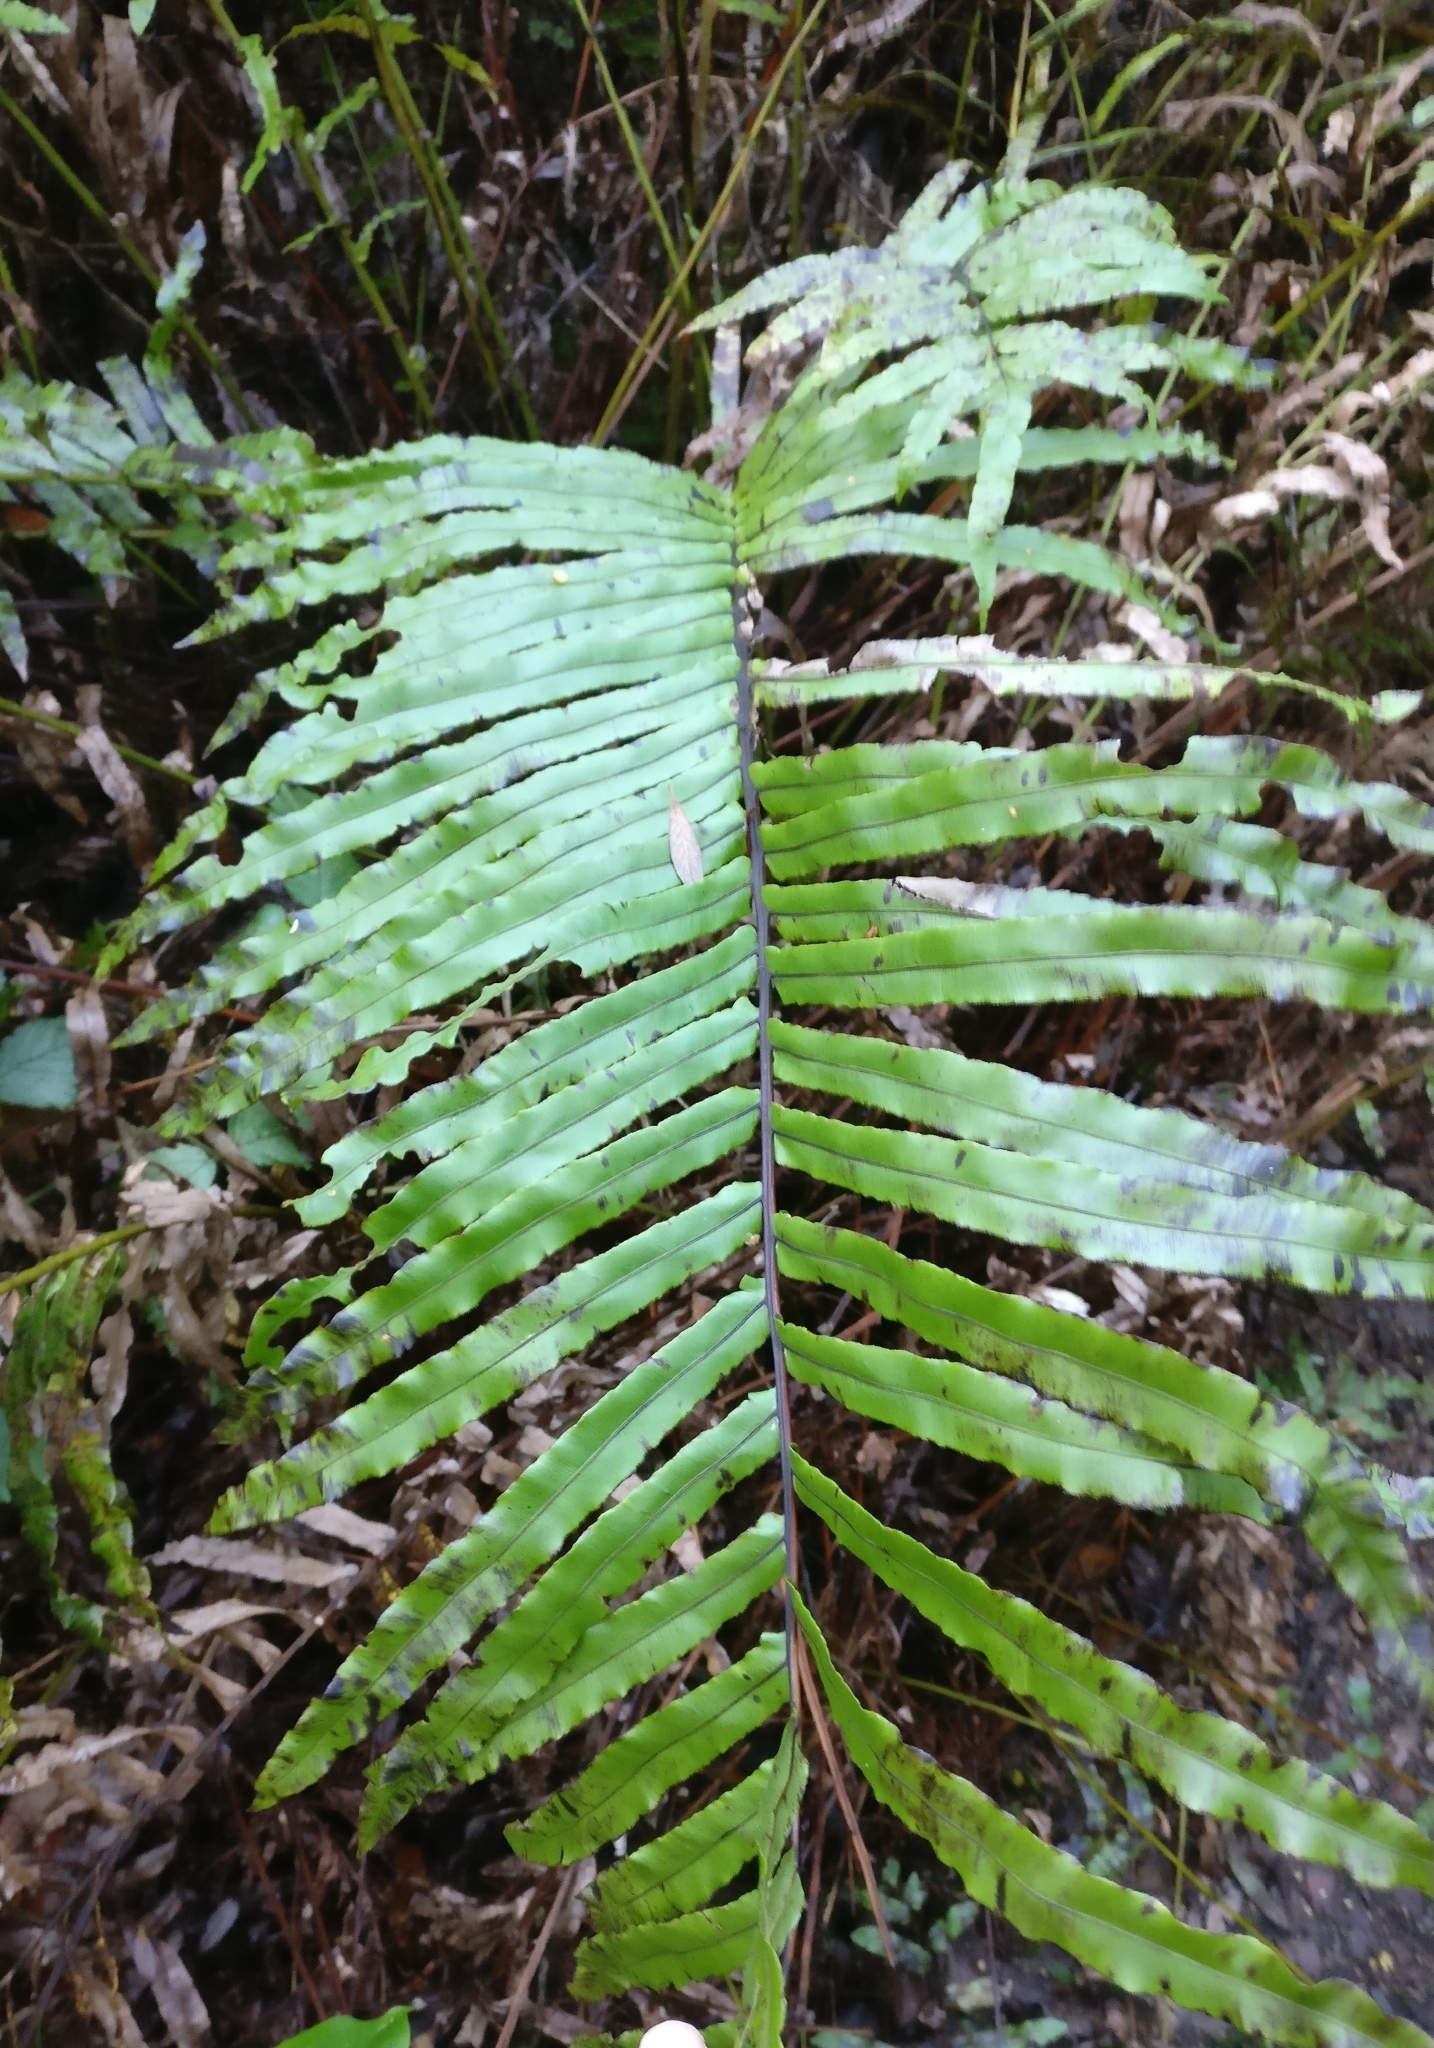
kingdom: Plantae
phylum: Tracheophyta
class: Polypodiopsida
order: Polypodiales
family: Blechnaceae
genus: Parablechnum
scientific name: Parablechnum novae-zelandiae
